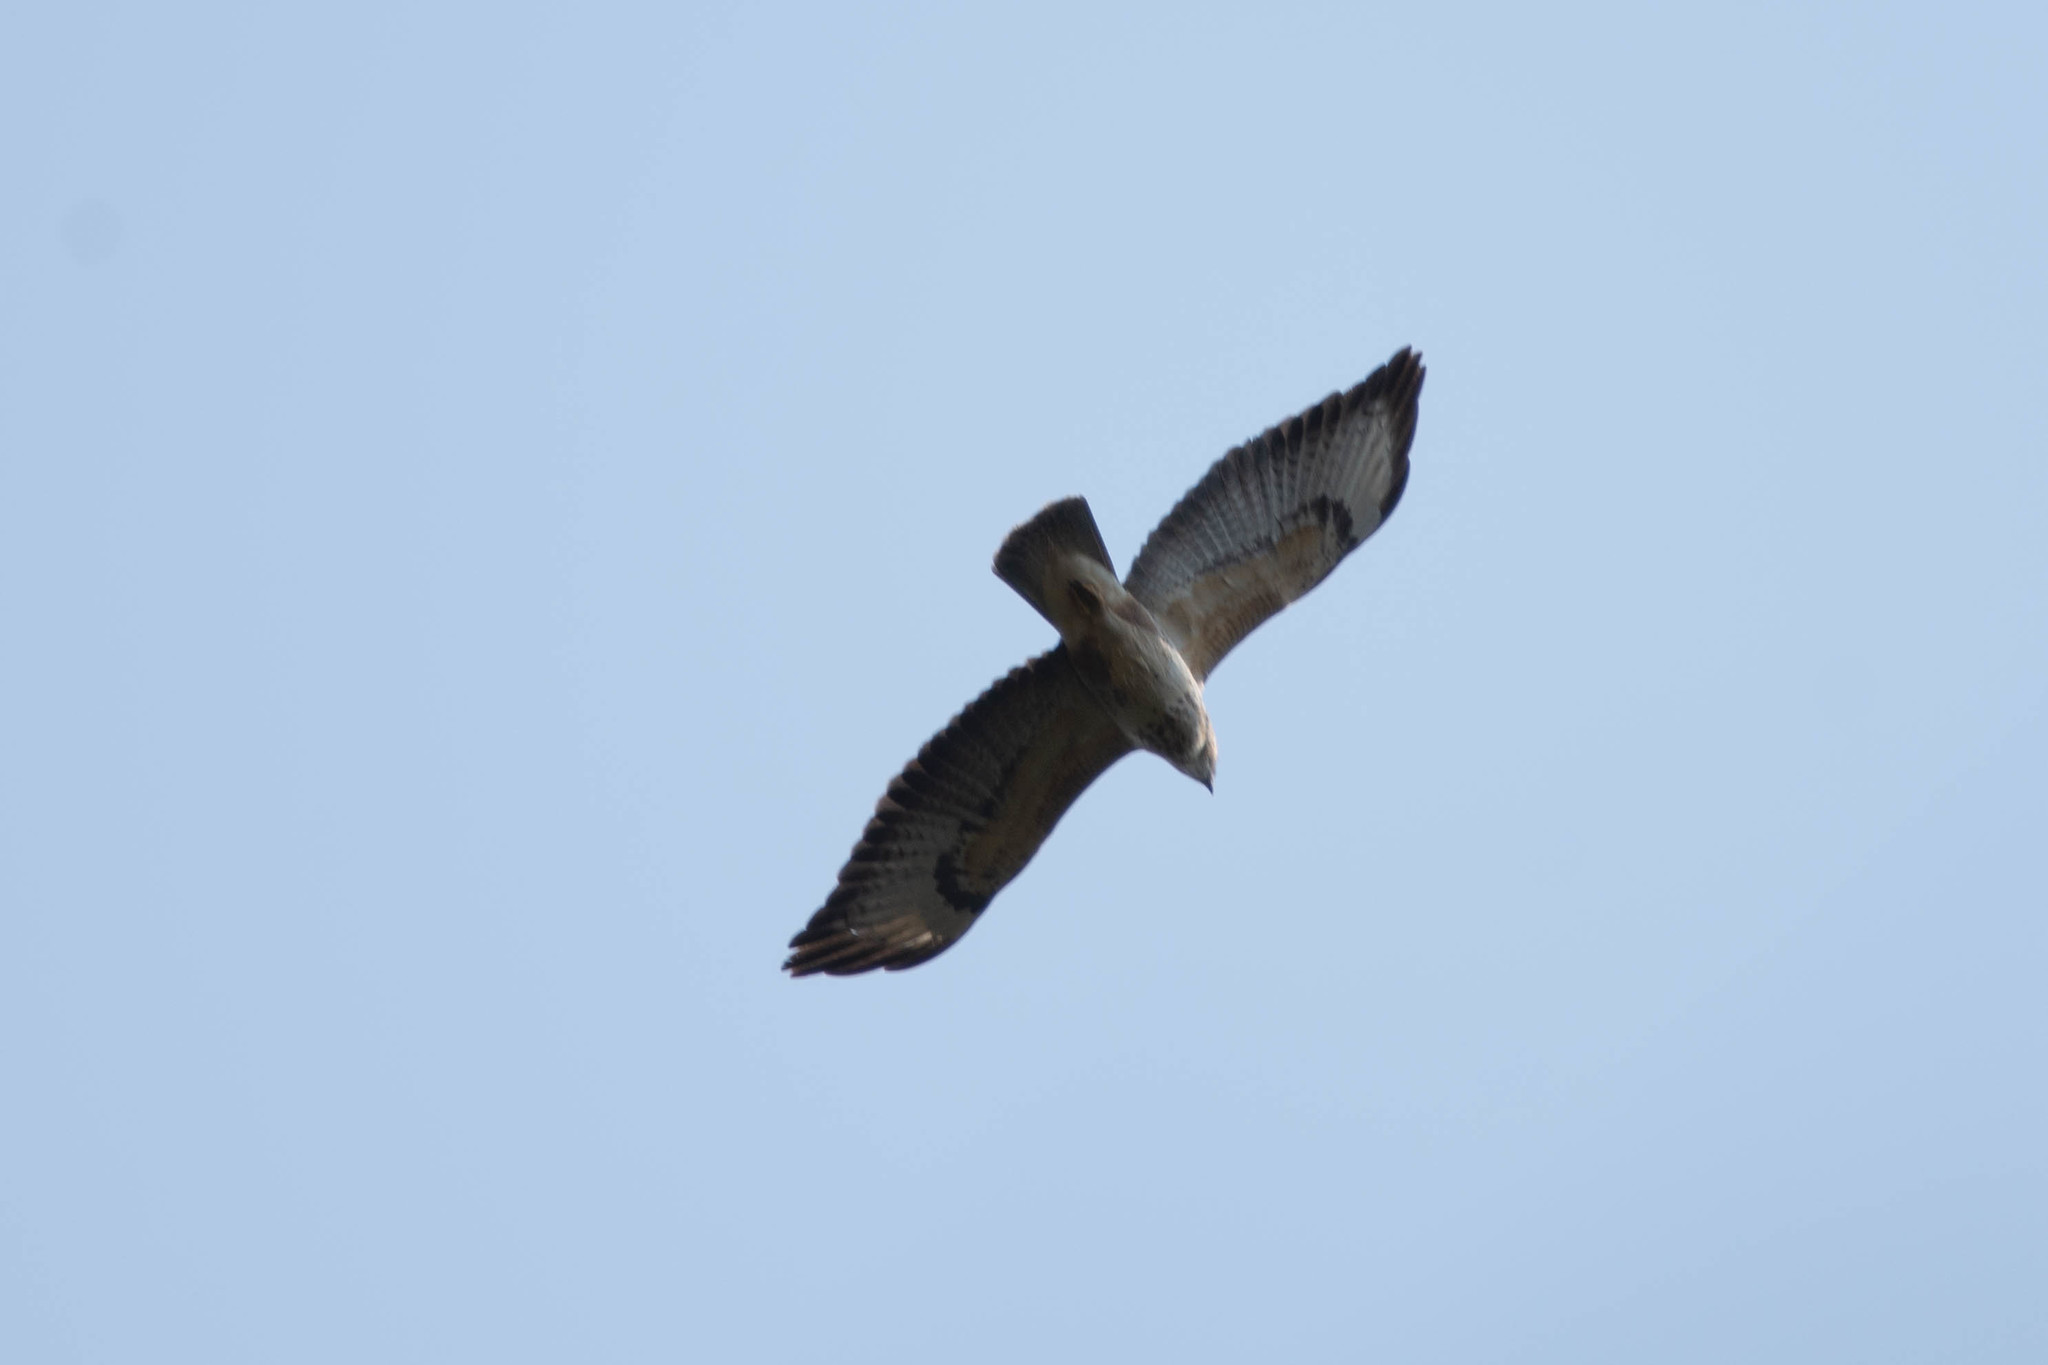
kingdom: Animalia
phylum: Chordata
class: Aves
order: Accipitriformes
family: Accipitridae
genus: Buteo
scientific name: Buteo buteo
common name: Common buzzard
